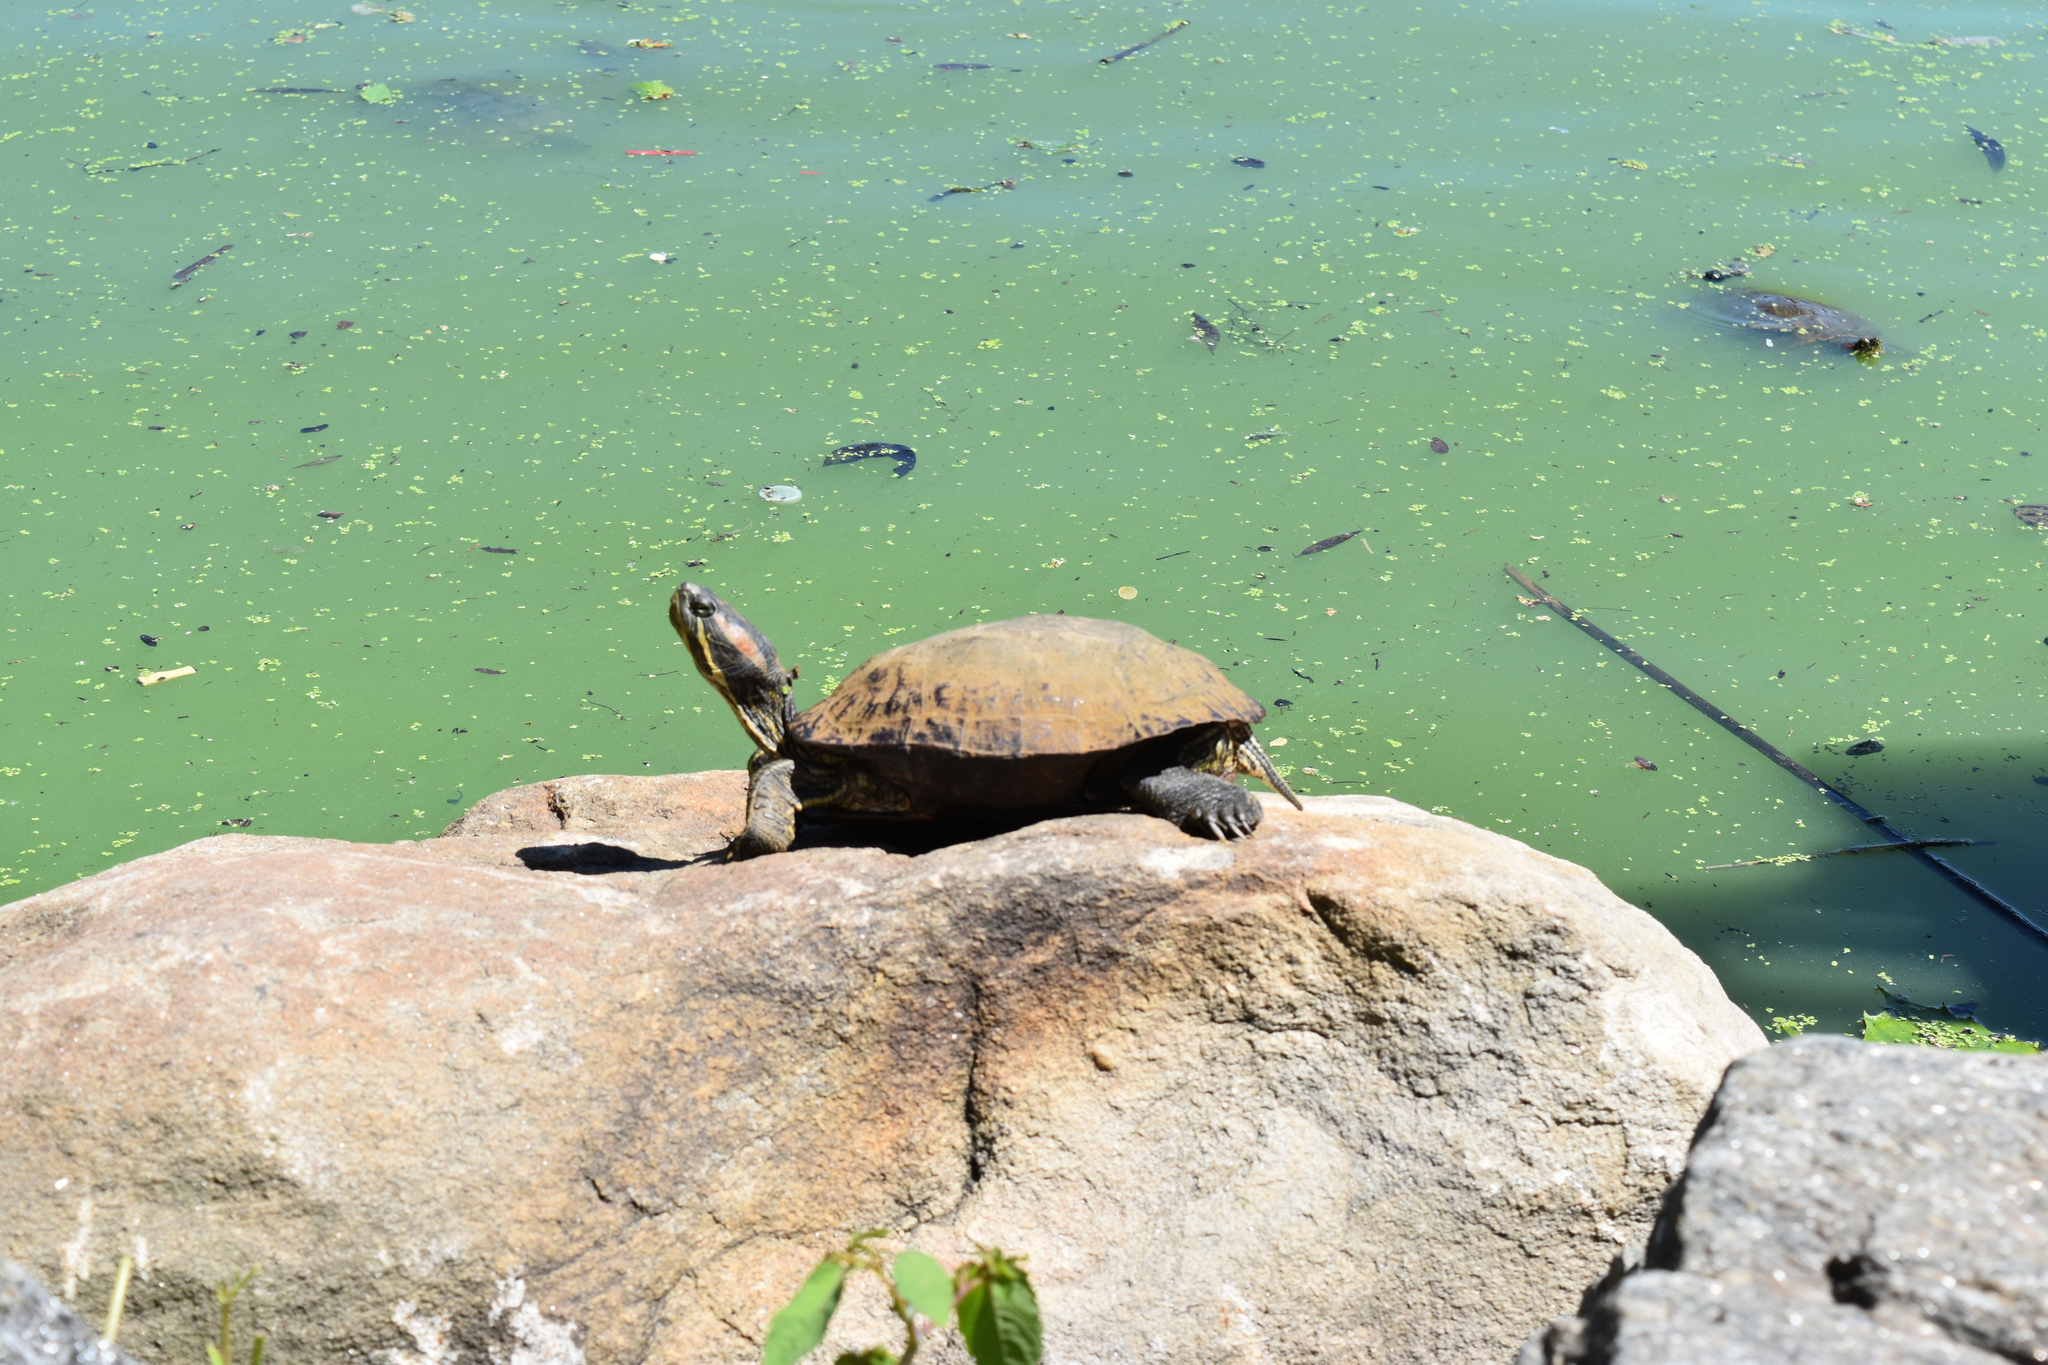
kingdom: Animalia
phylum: Chordata
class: Testudines
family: Emydidae
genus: Trachemys
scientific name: Trachemys scripta
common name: Slider
